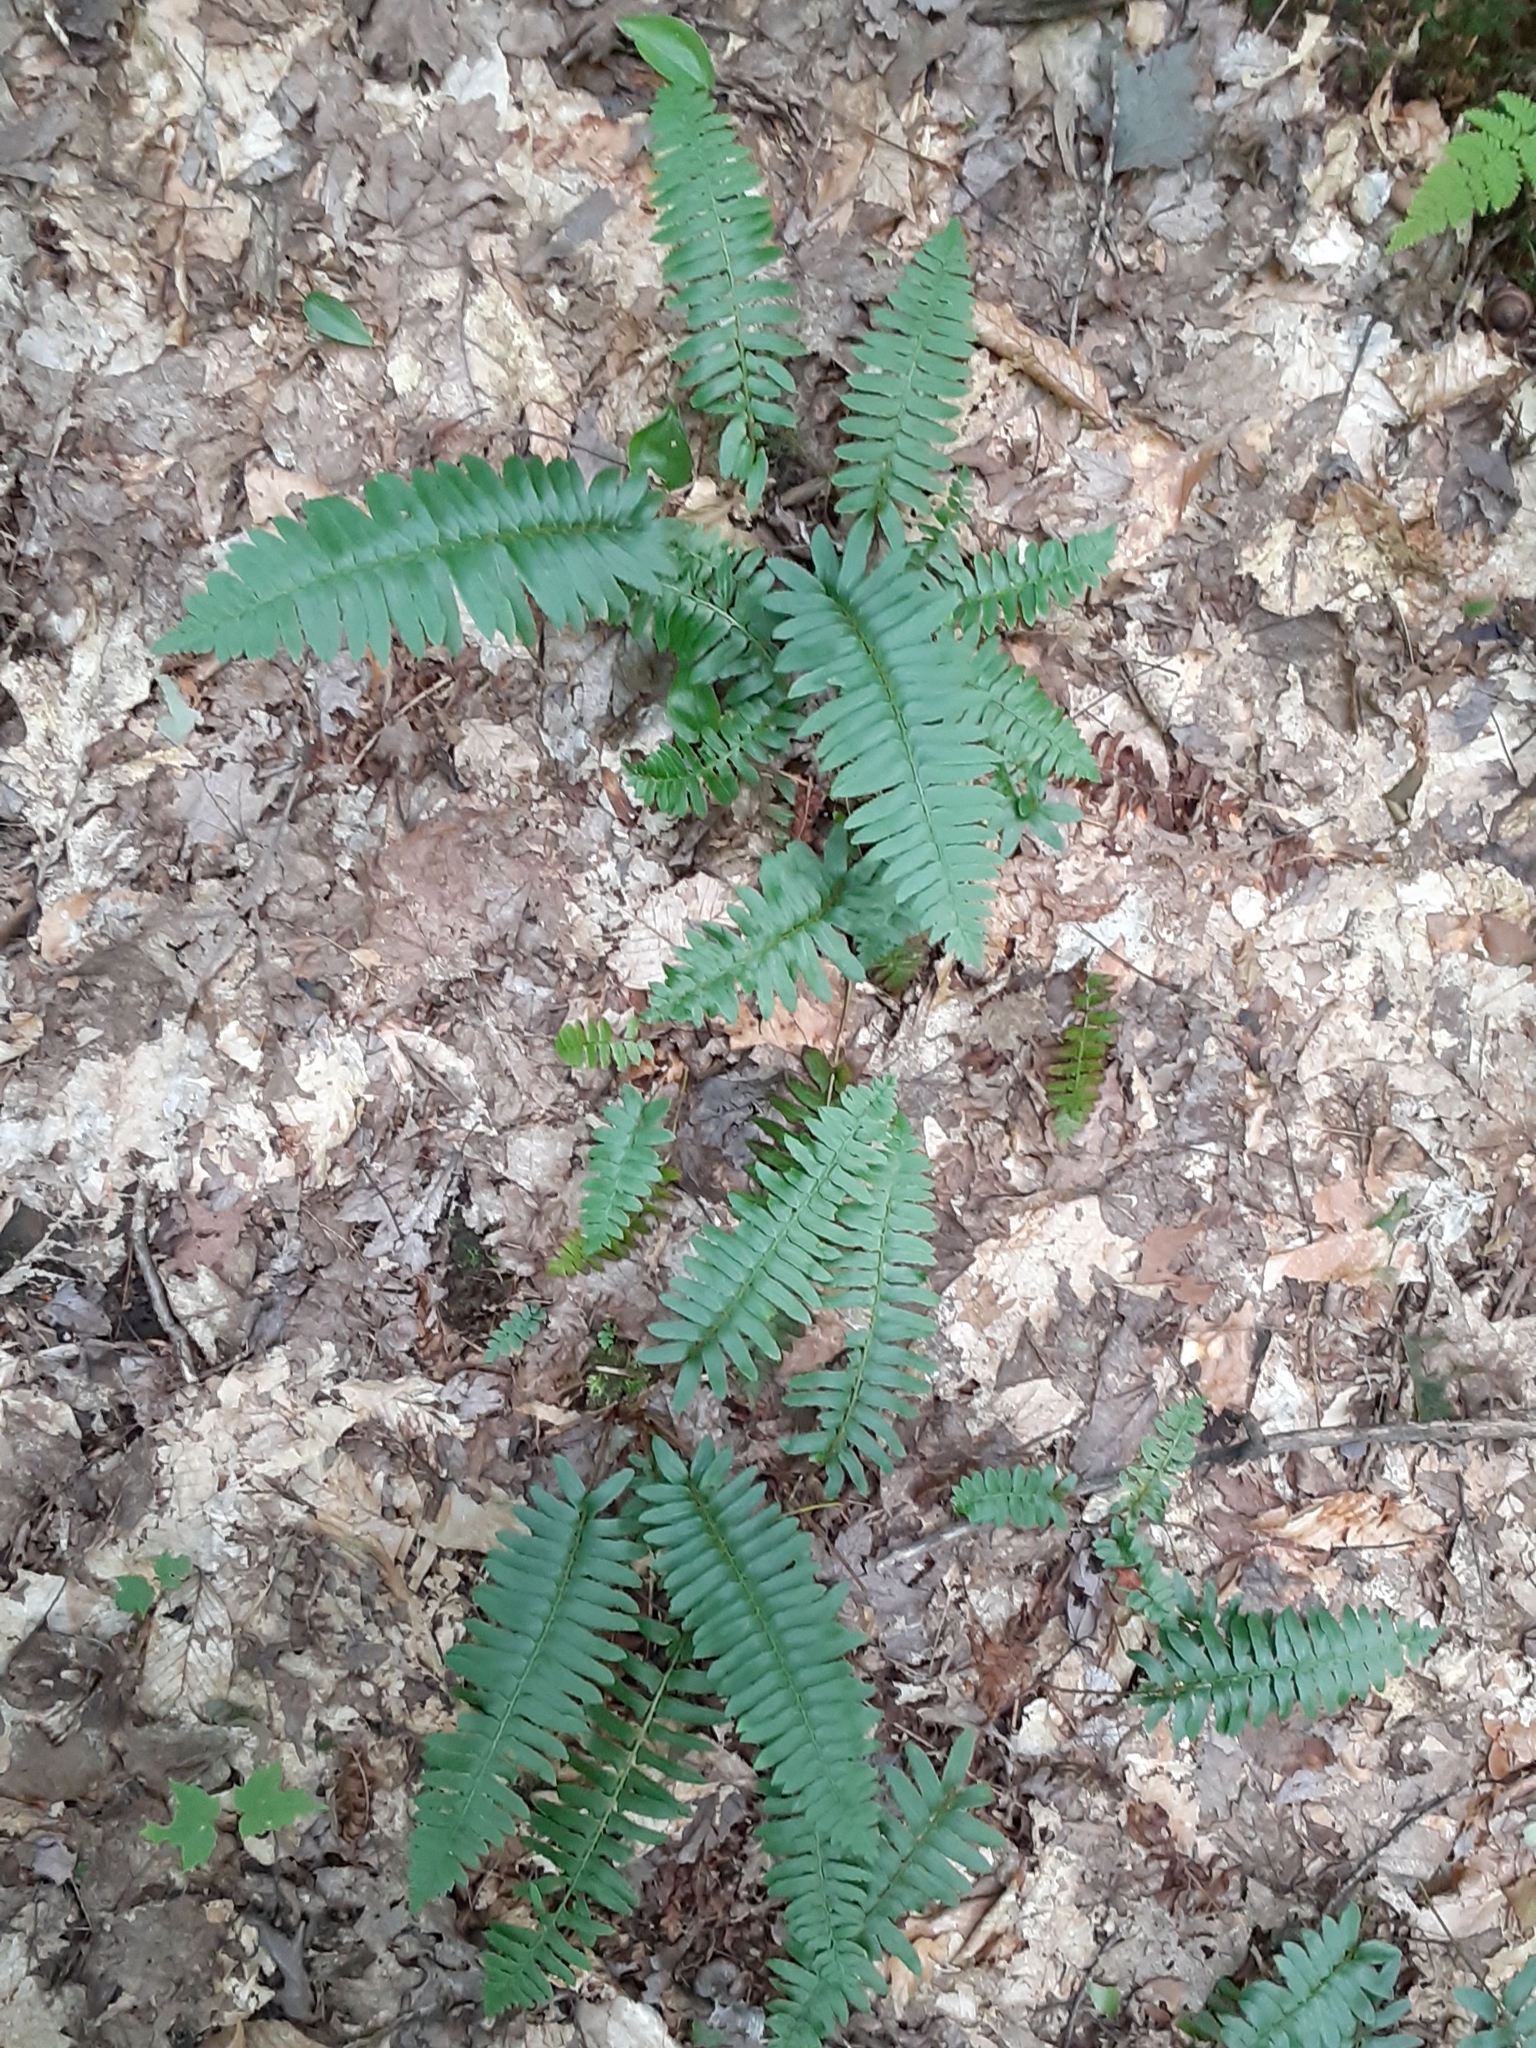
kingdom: Plantae
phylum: Tracheophyta
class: Polypodiopsida
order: Polypodiales
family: Dryopteridaceae
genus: Polystichum
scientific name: Polystichum acrostichoides
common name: Christmas fern
